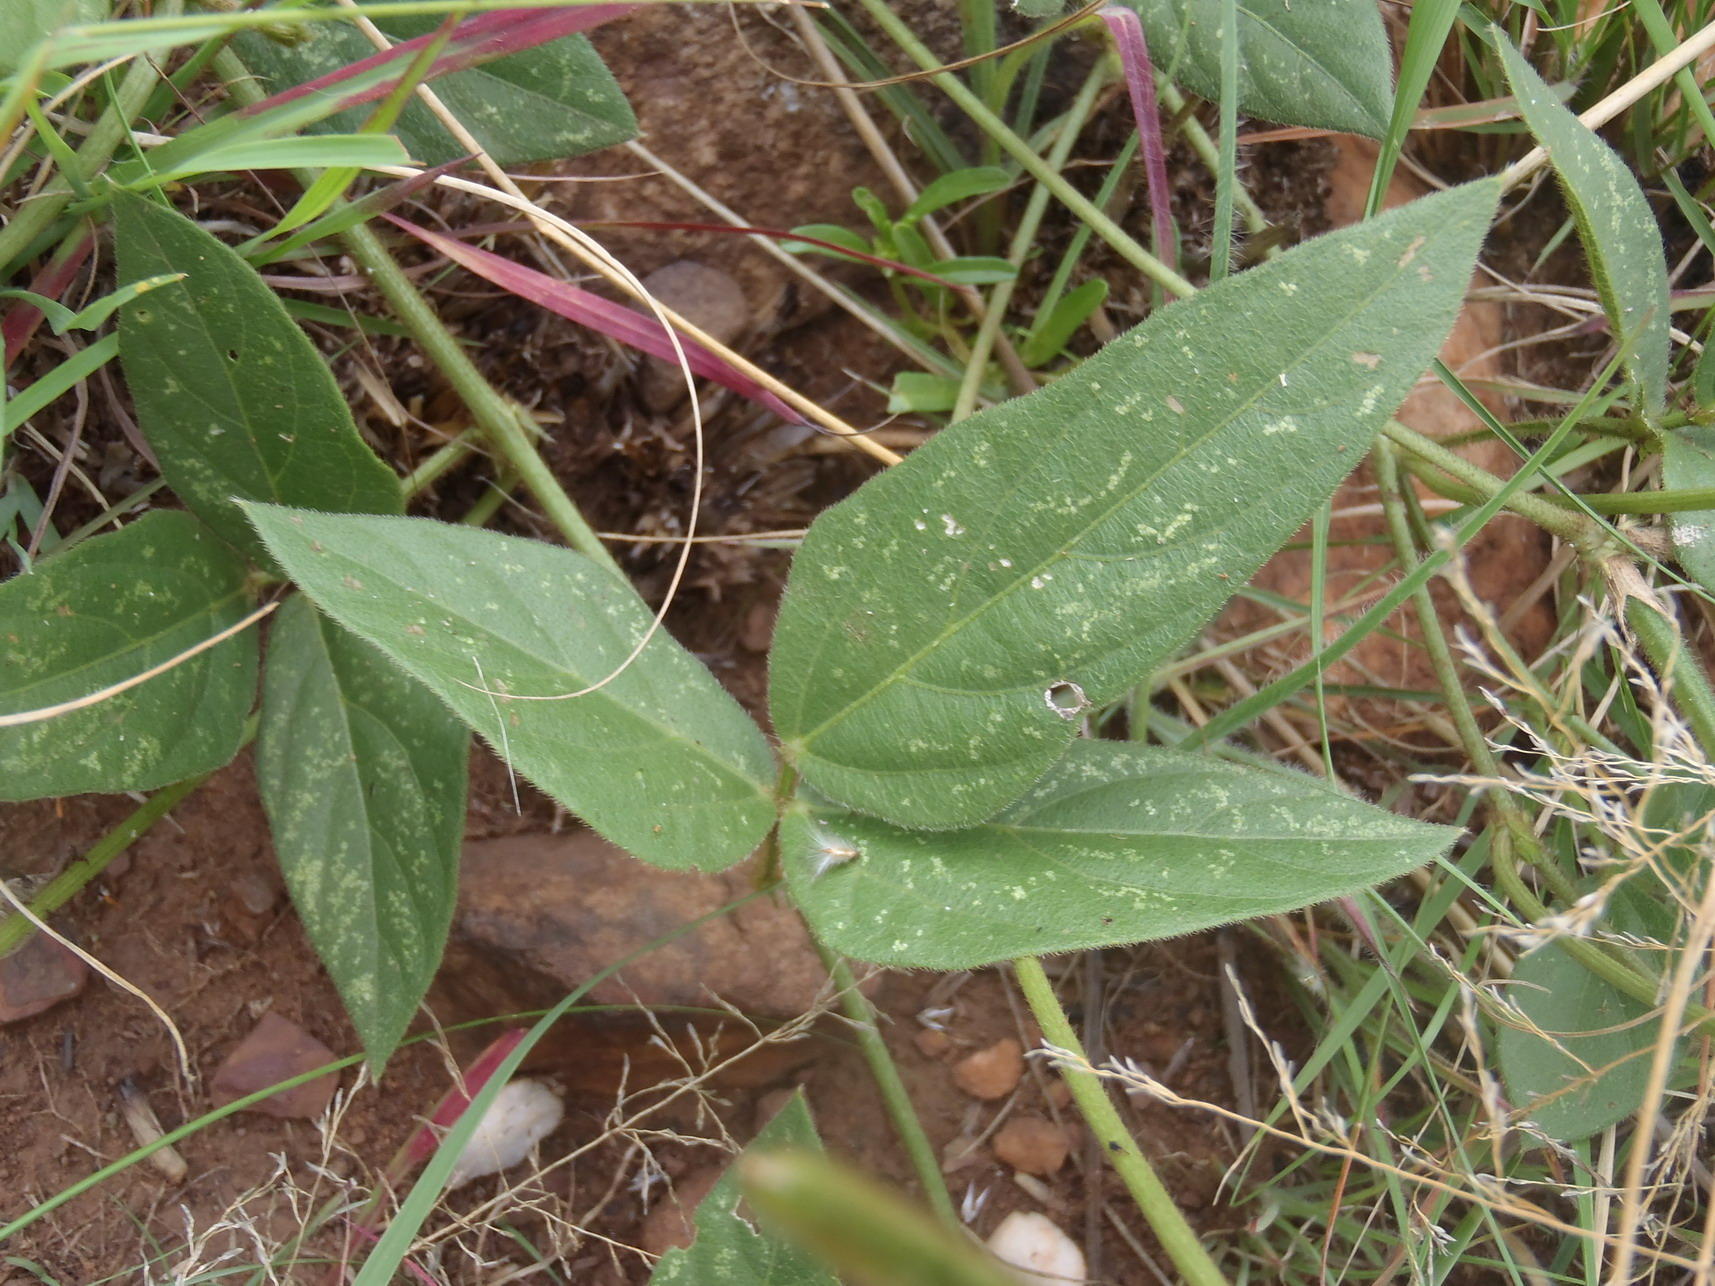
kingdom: Plantae
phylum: Tracheophyta
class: Magnoliopsida
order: Fabales
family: Fabaceae
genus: Vigna
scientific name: Vigna vexillata
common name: Zombi pea
